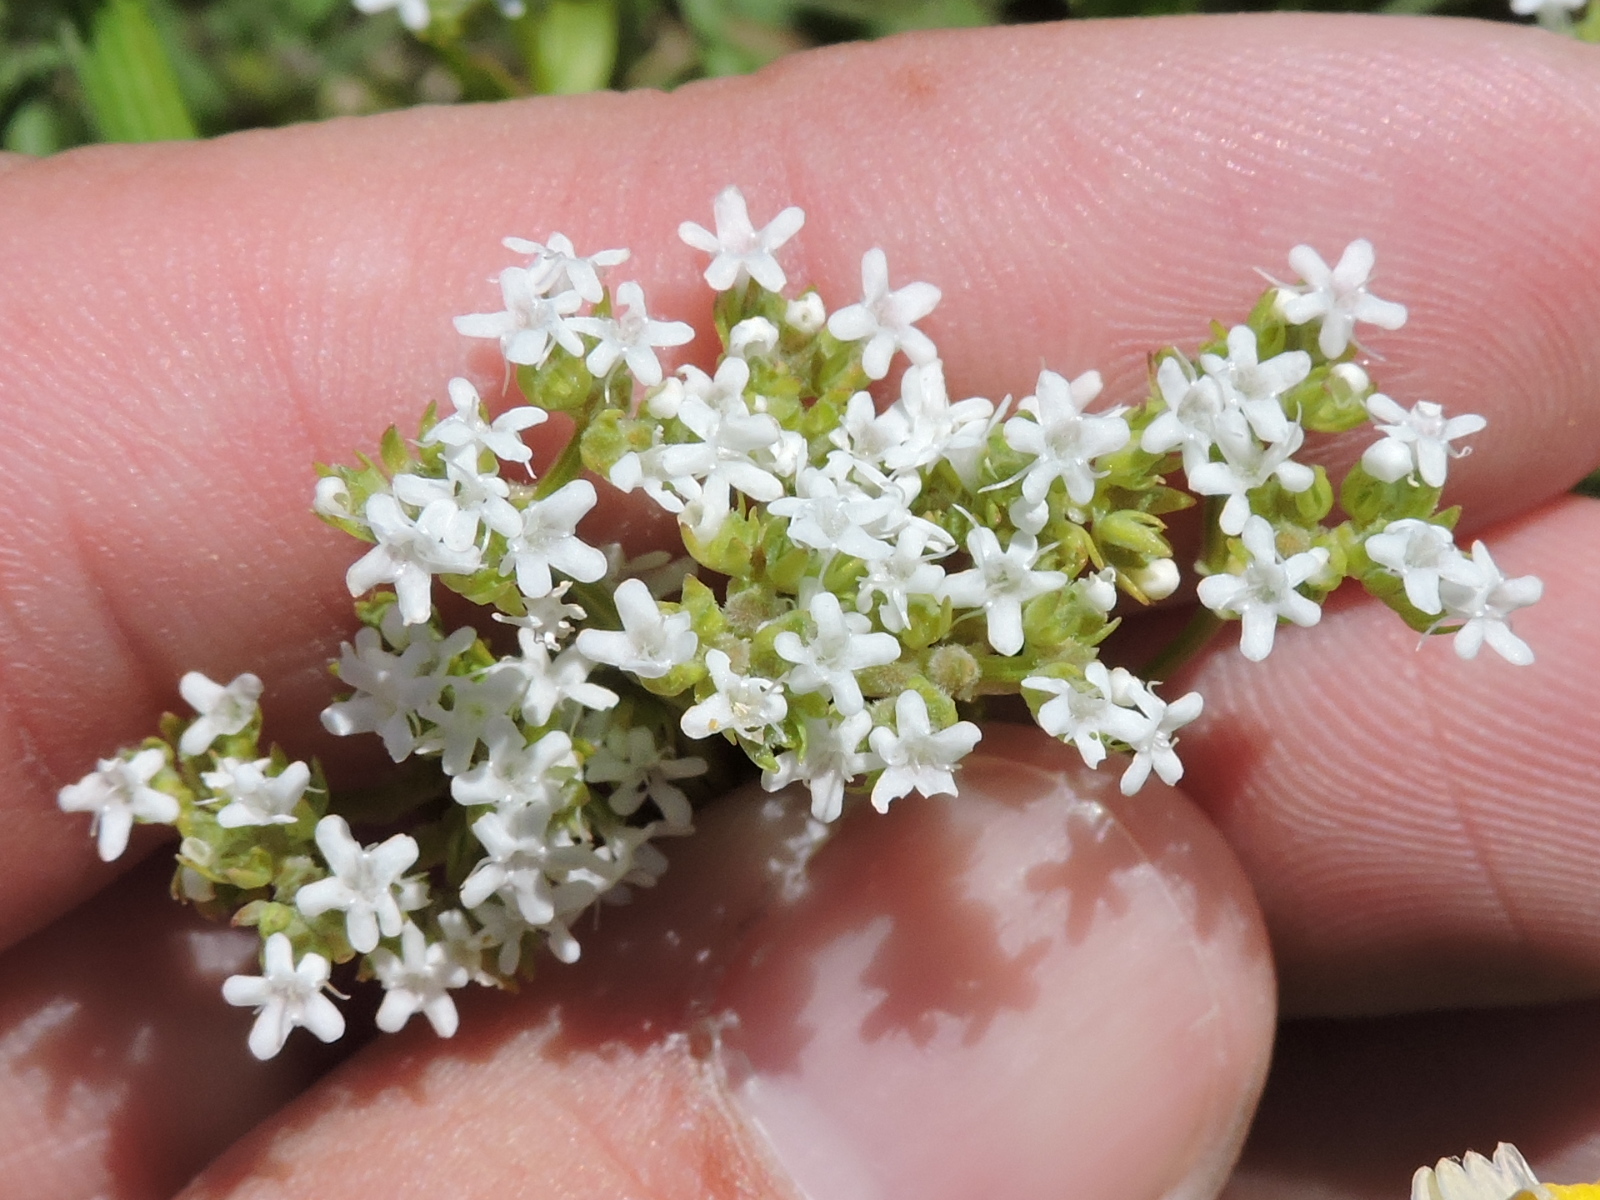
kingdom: Plantae
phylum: Tracheophyta
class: Magnoliopsida
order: Dipsacales
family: Caprifoliaceae
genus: Valerianella
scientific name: Valerianella amarella
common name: Hariy cornsalad
